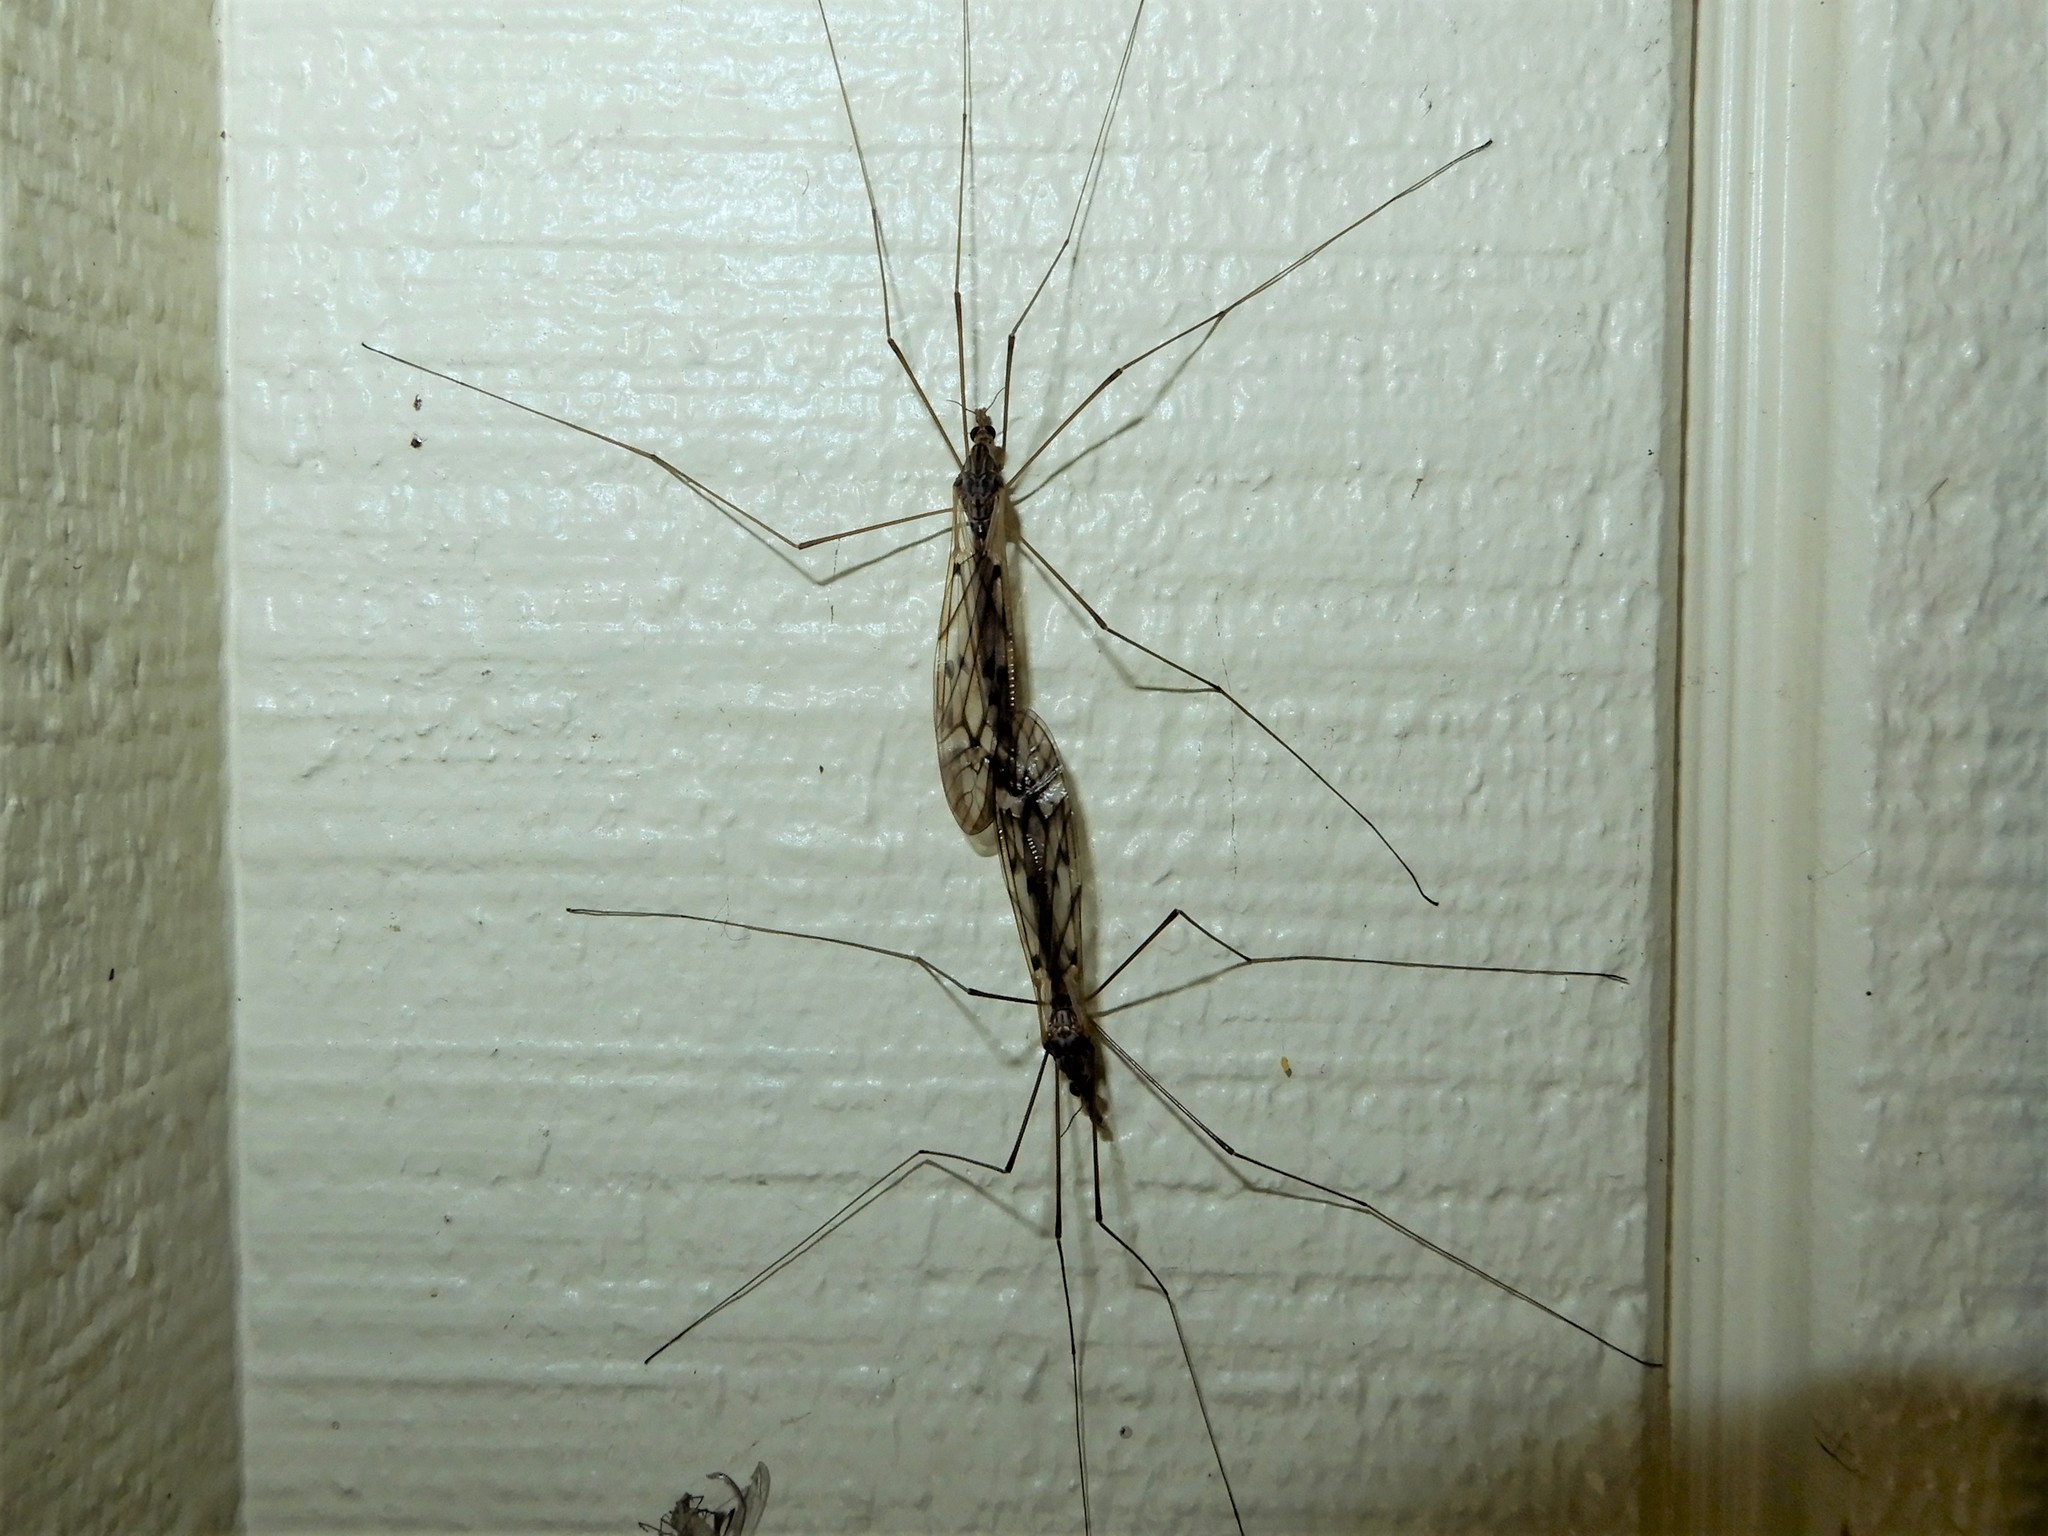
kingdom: Animalia
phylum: Arthropoda
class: Insecta
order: Diptera
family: Tipulidae
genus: Zelandotipula
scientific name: Zelandotipula novarae
